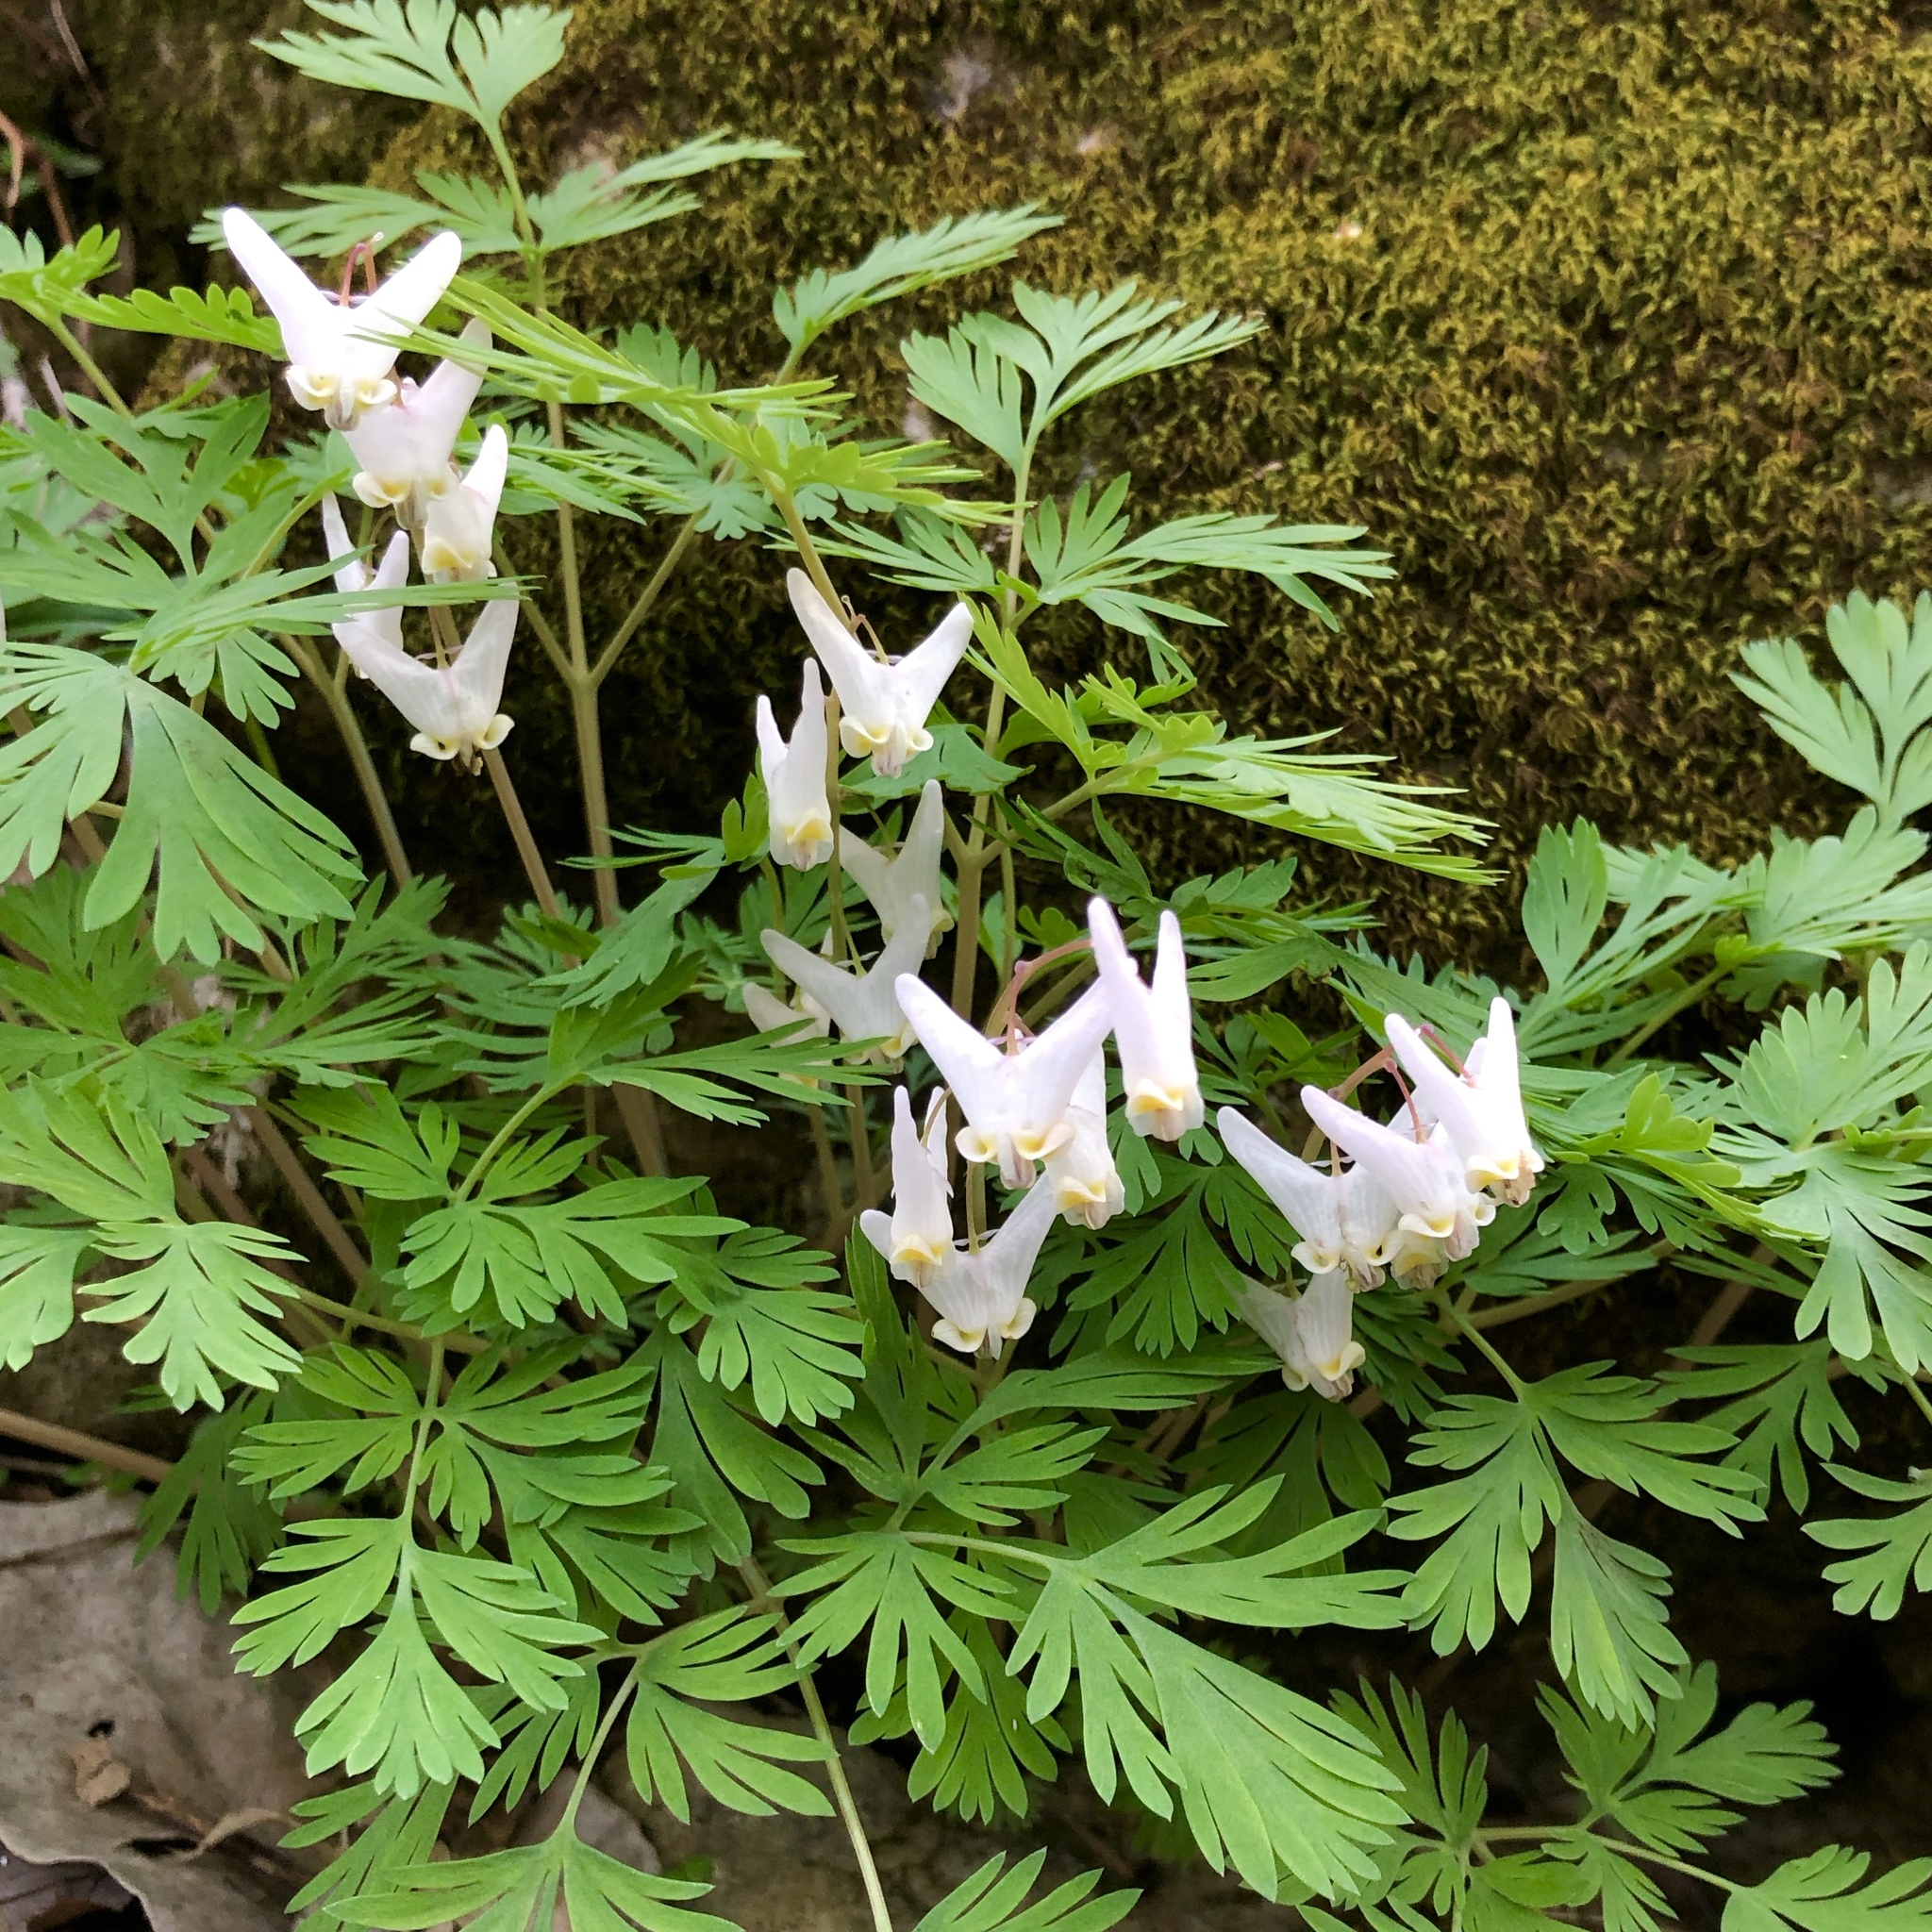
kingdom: Plantae
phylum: Tracheophyta
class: Magnoliopsida
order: Ranunculales
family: Papaveraceae
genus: Dicentra
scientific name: Dicentra cucullaria
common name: Dutchman's breeches
